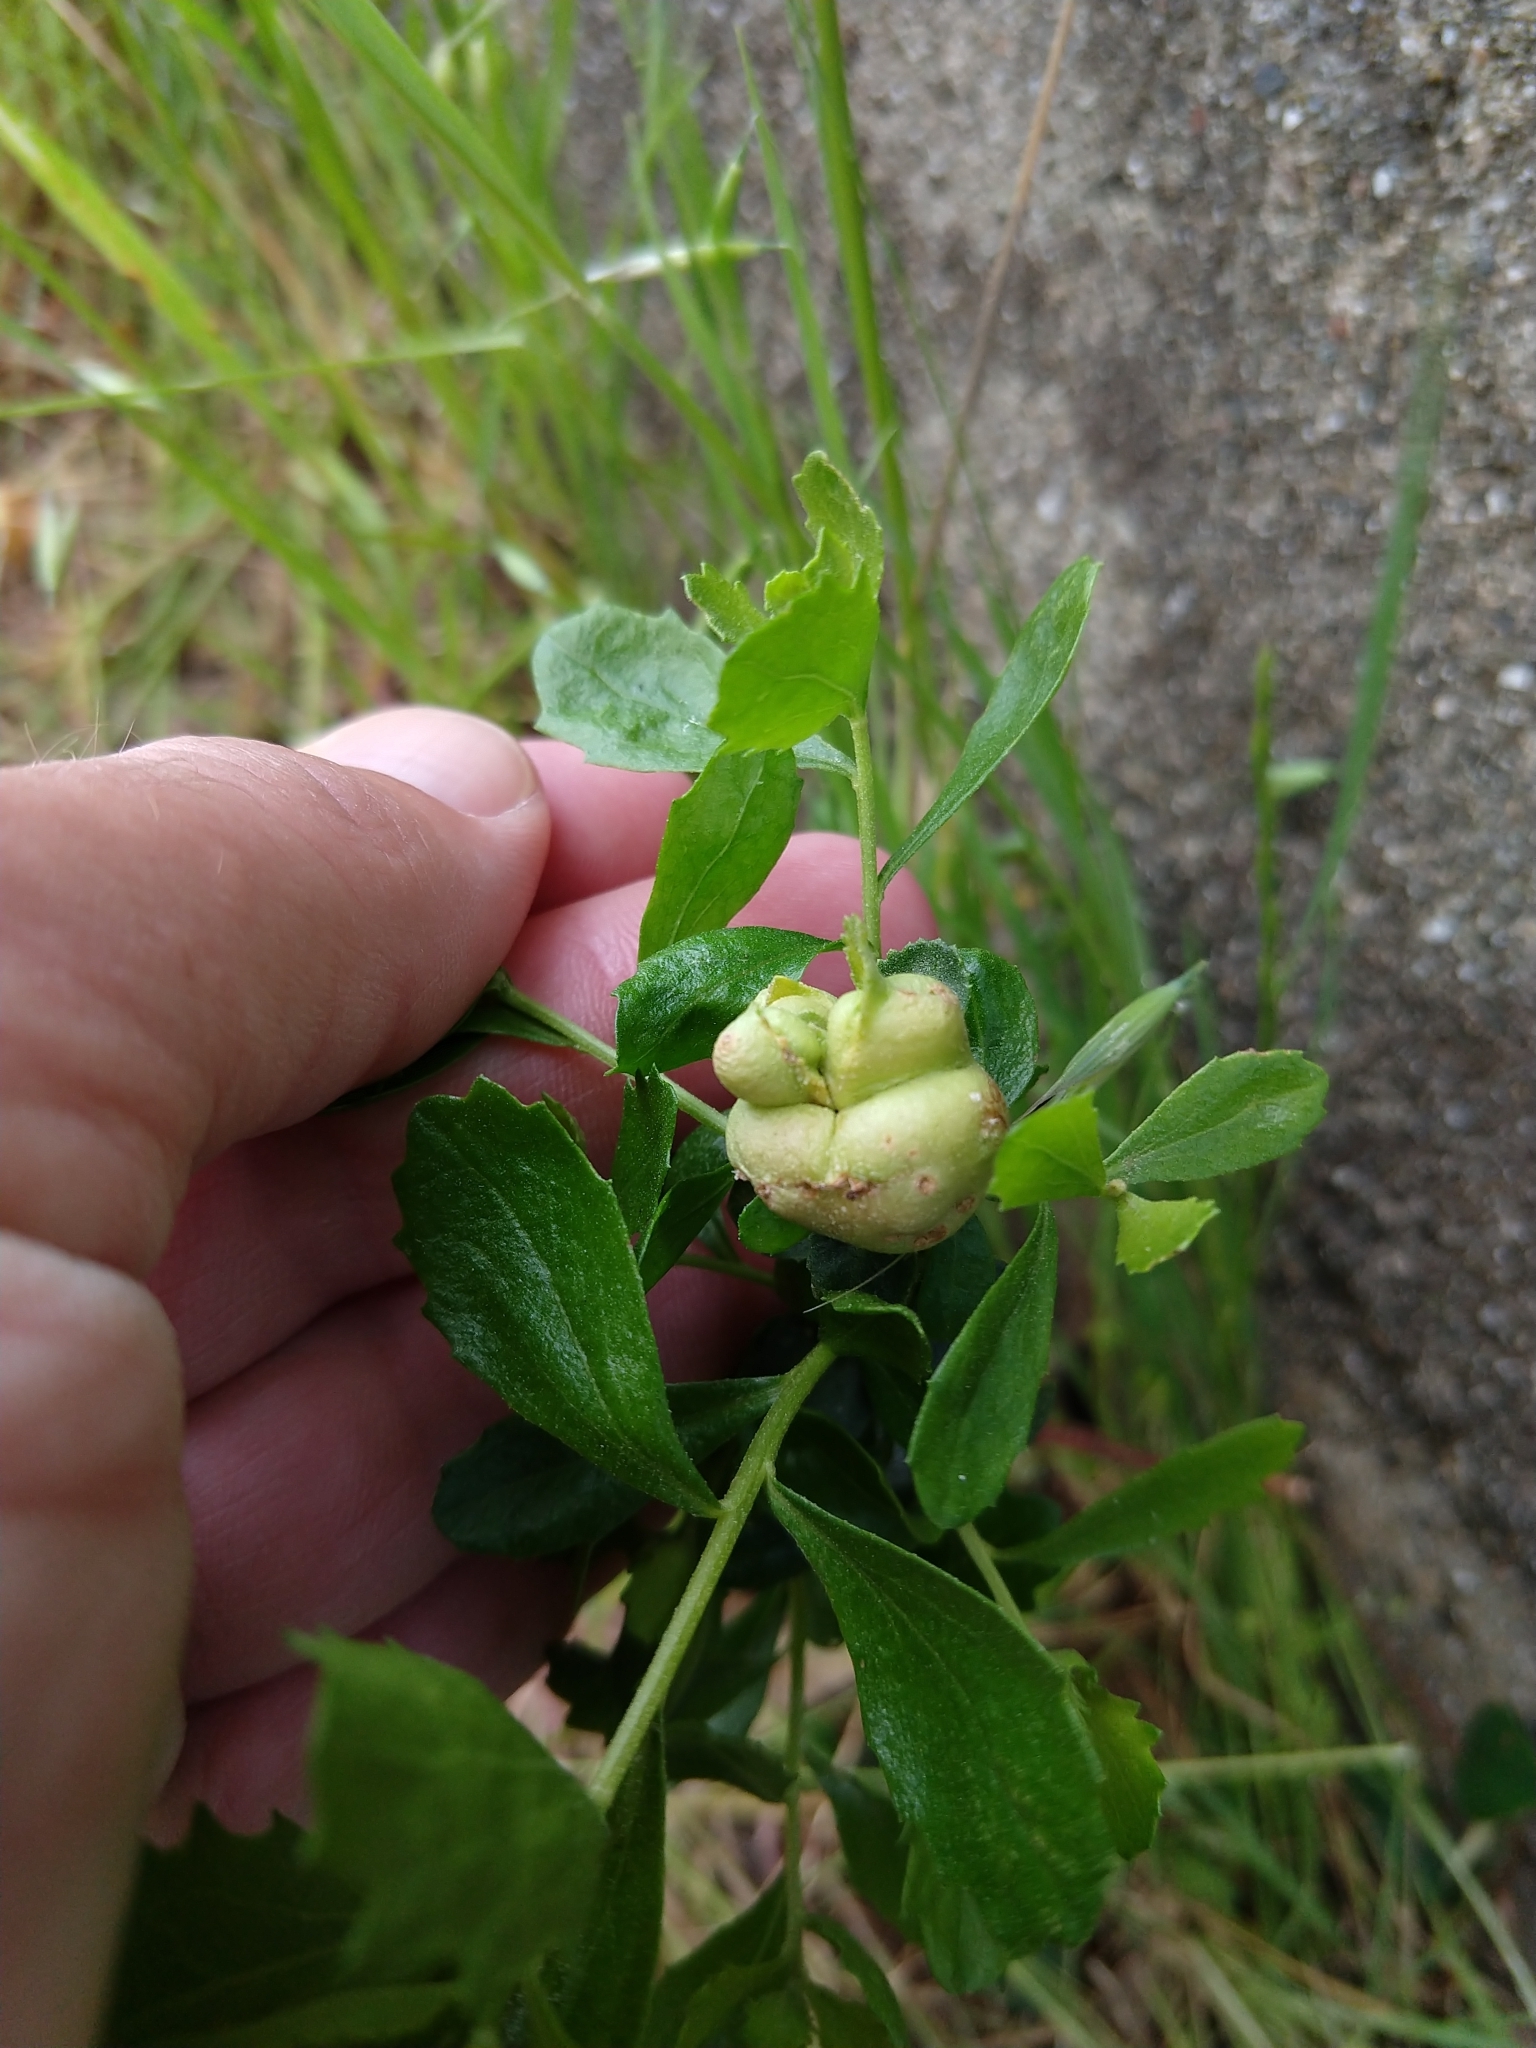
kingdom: Animalia
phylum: Arthropoda
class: Insecta
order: Diptera
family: Cecidomyiidae
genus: Rhopalomyia
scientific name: Rhopalomyia californica
